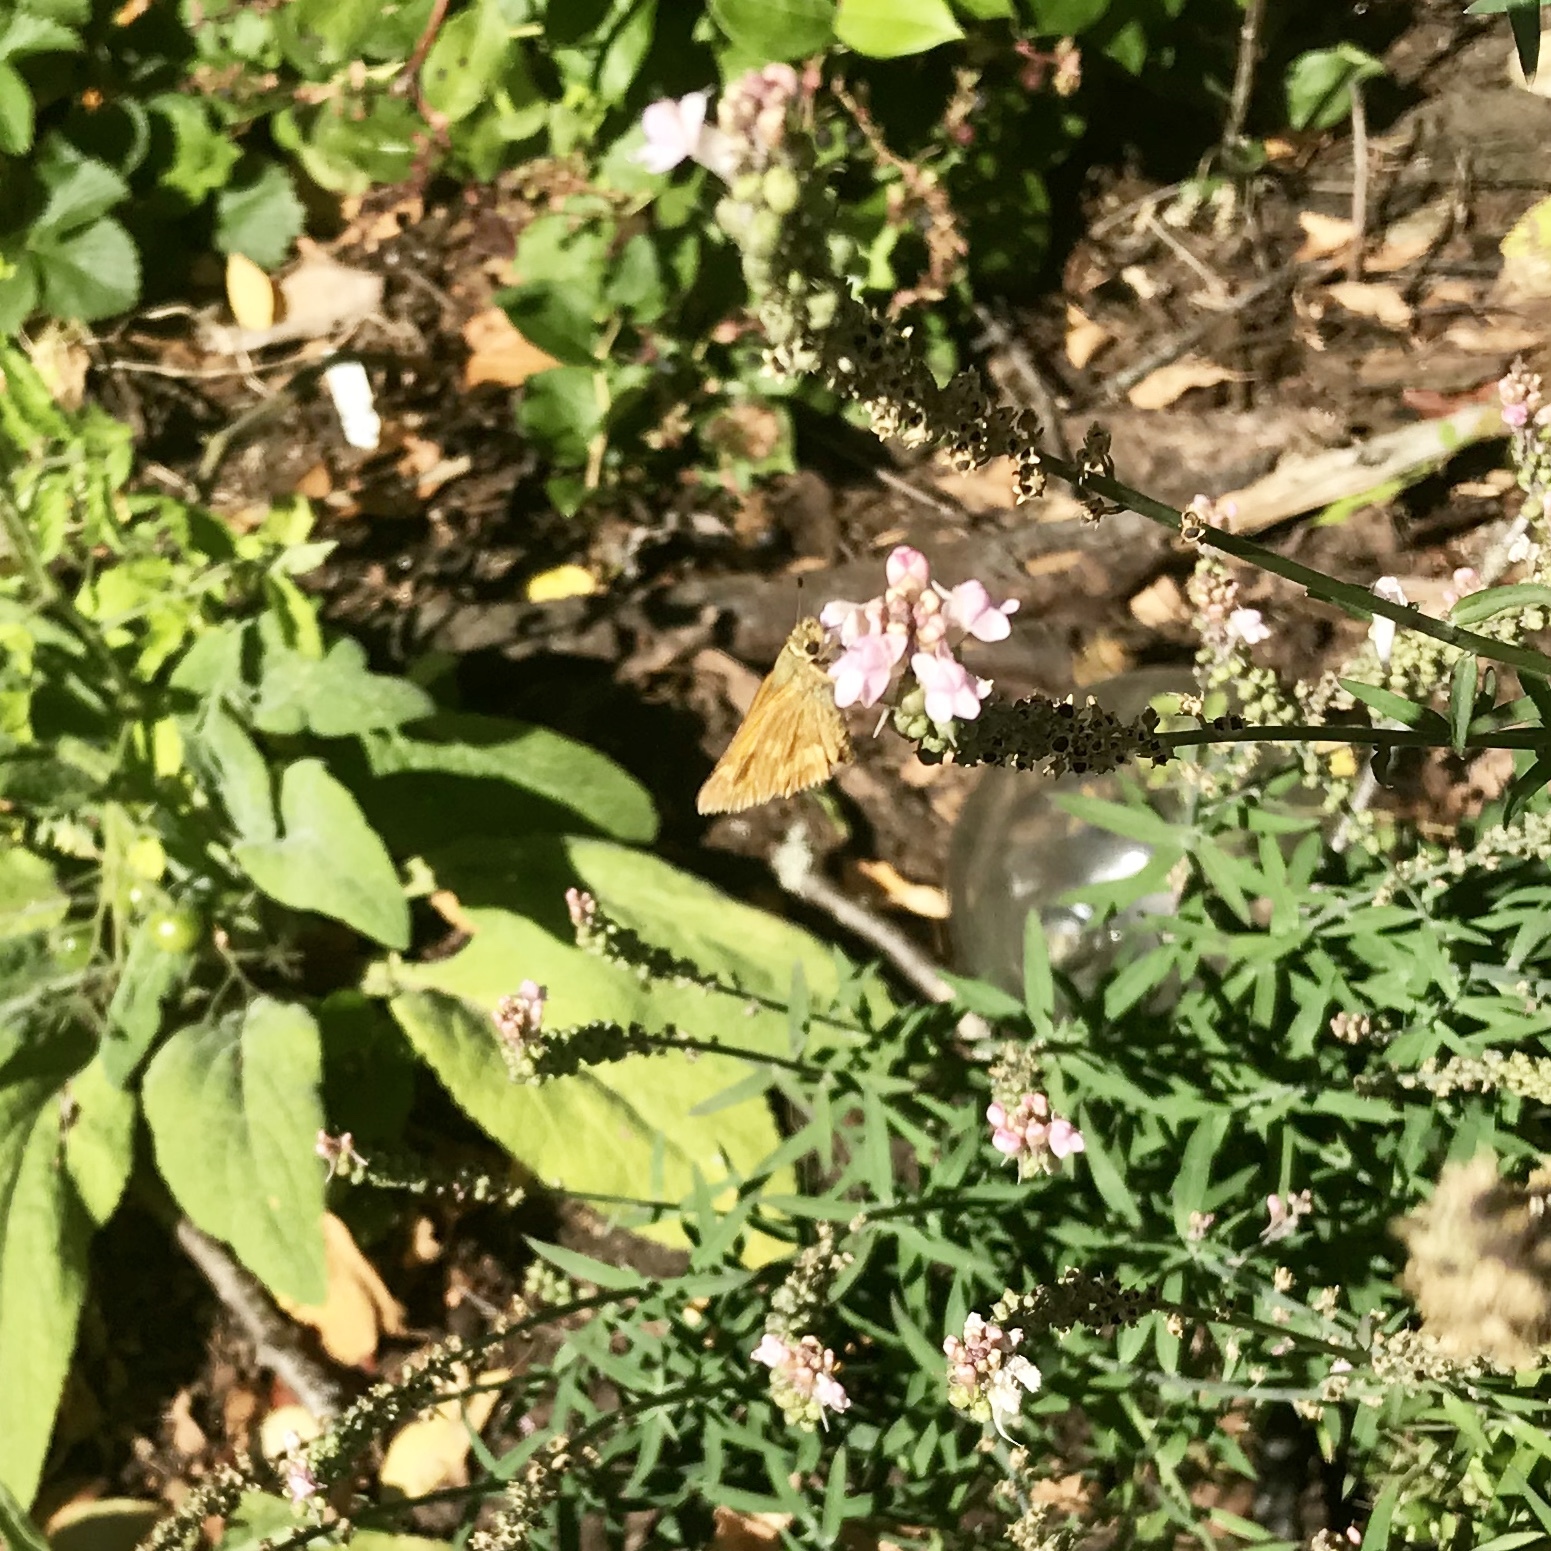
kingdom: Animalia
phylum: Arthropoda
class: Insecta
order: Lepidoptera
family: Hesperiidae
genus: Ochlodes
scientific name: Ochlodes sylvanoides
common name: Woodland skipper
